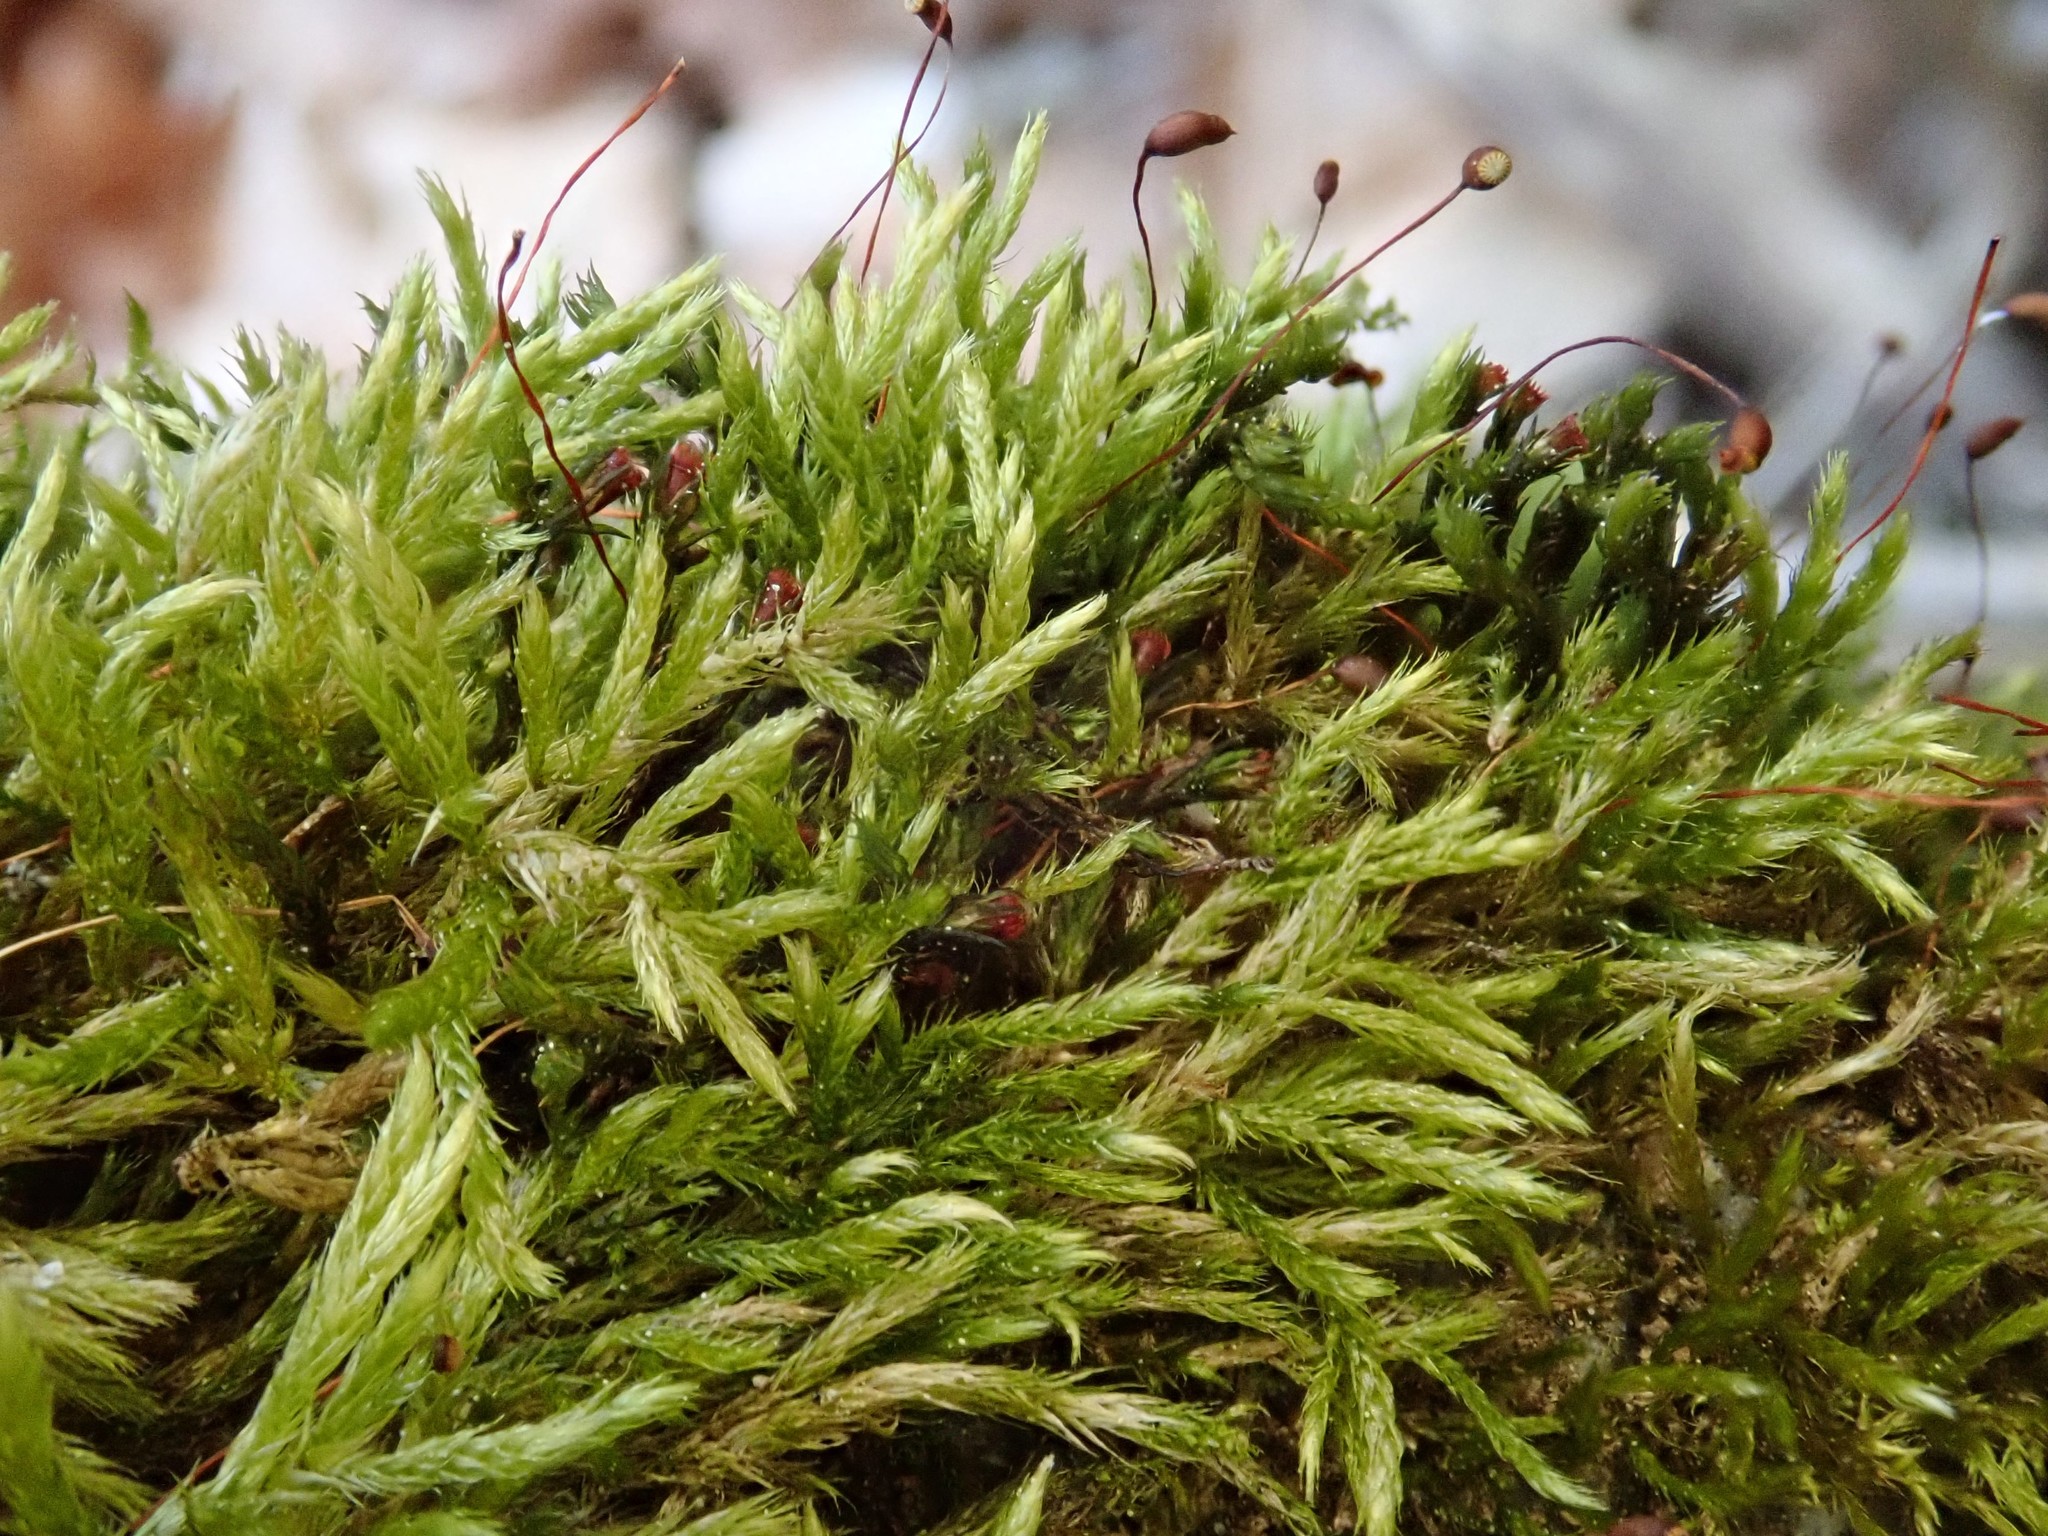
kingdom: Plantae
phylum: Bryophyta
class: Bryopsida
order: Hypnales
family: Brachytheciaceae
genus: Sciuro-hypnum
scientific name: Sciuro-hypnum populeum
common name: Matted feather-moss
